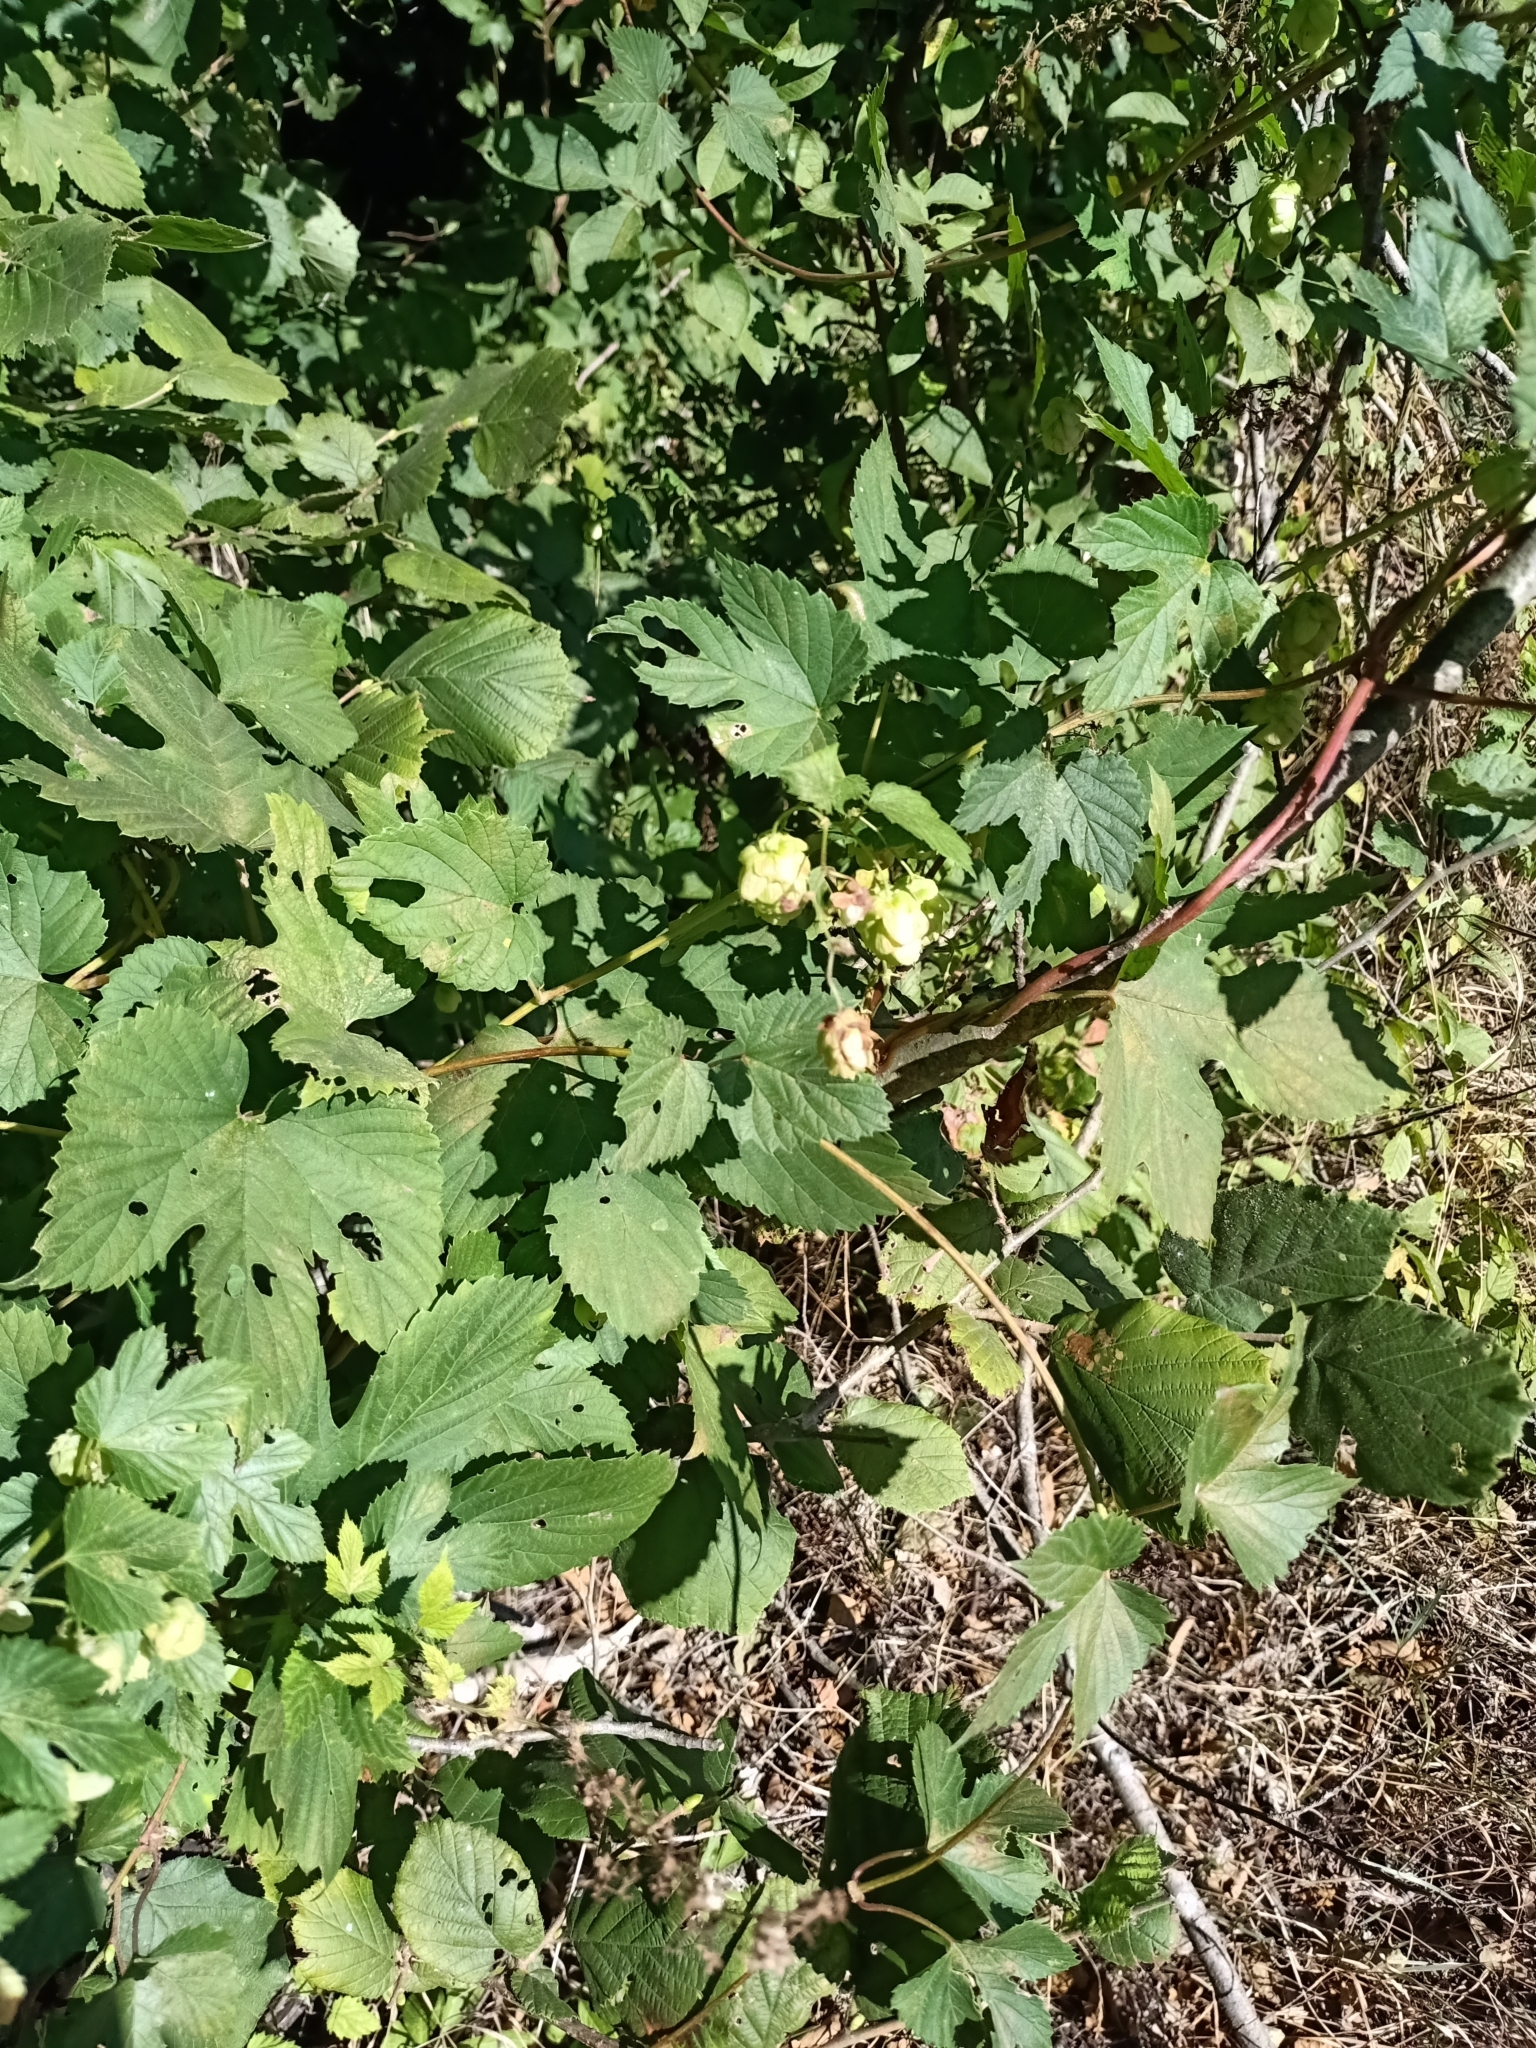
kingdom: Plantae
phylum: Tracheophyta
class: Magnoliopsida
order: Rosales
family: Cannabaceae
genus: Humulus
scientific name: Humulus lupulus
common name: Hop
